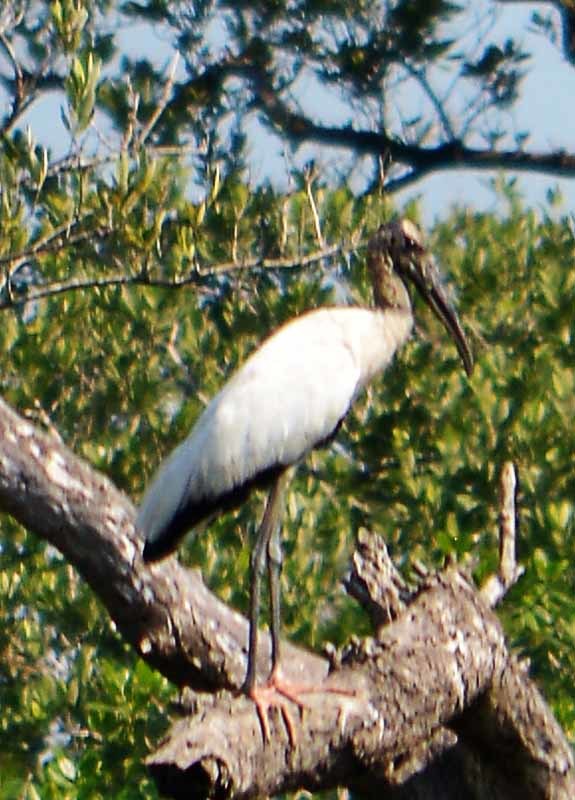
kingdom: Animalia
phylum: Chordata
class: Aves
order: Ciconiiformes
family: Ciconiidae
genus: Mycteria
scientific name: Mycteria americana
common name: Wood stork
